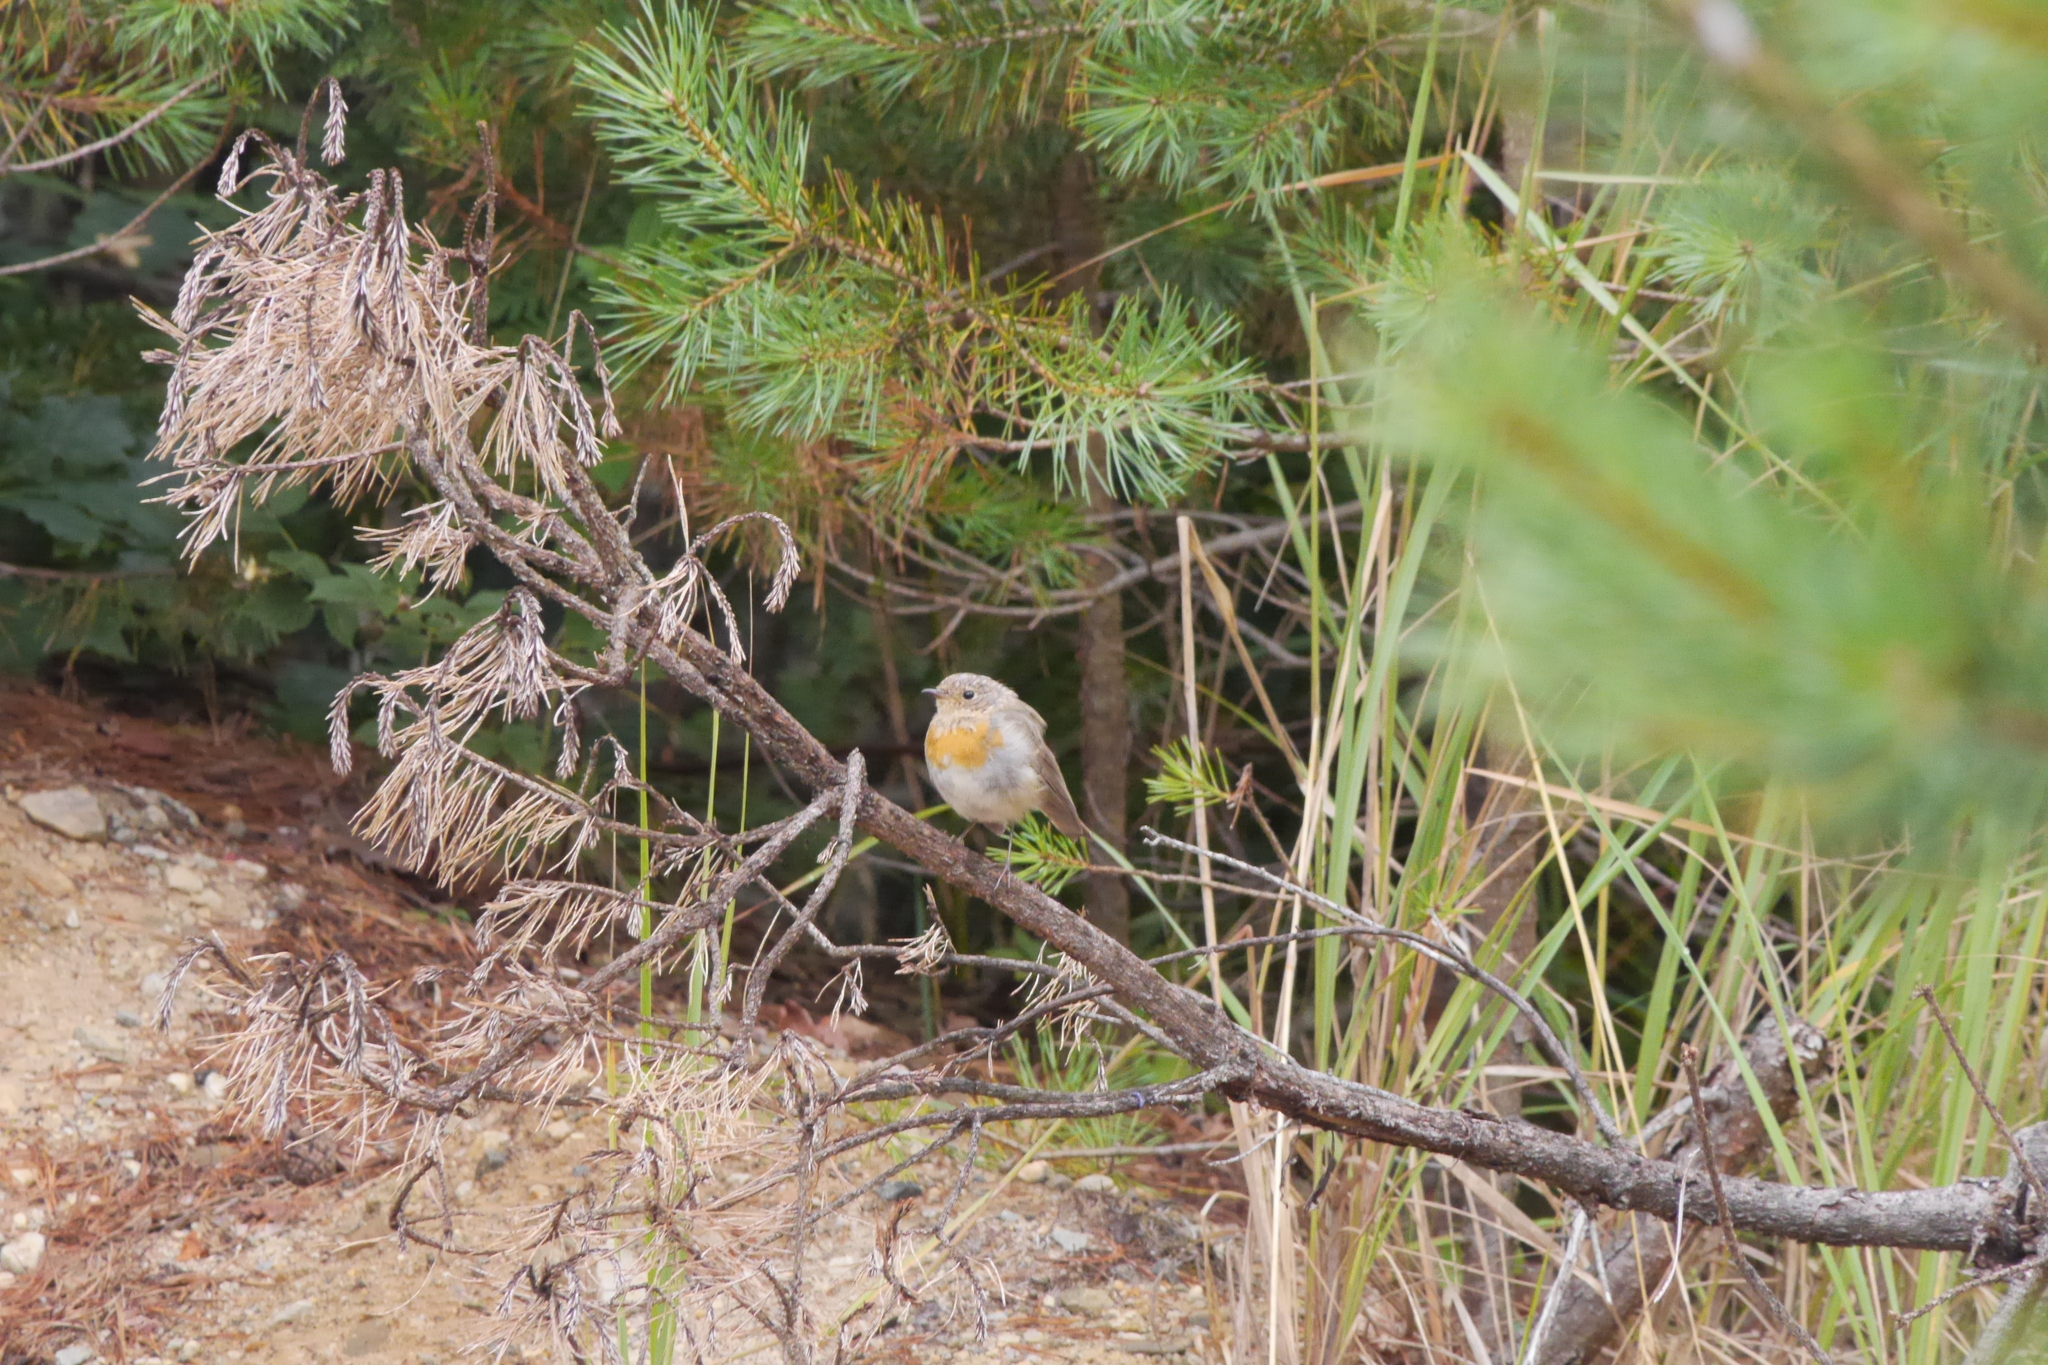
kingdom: Animalia
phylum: Chordata
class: Aves
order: Piciformes
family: Picidae
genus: Dendrocopos
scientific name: Dendrocopos major
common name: Great spotted woodpecker
